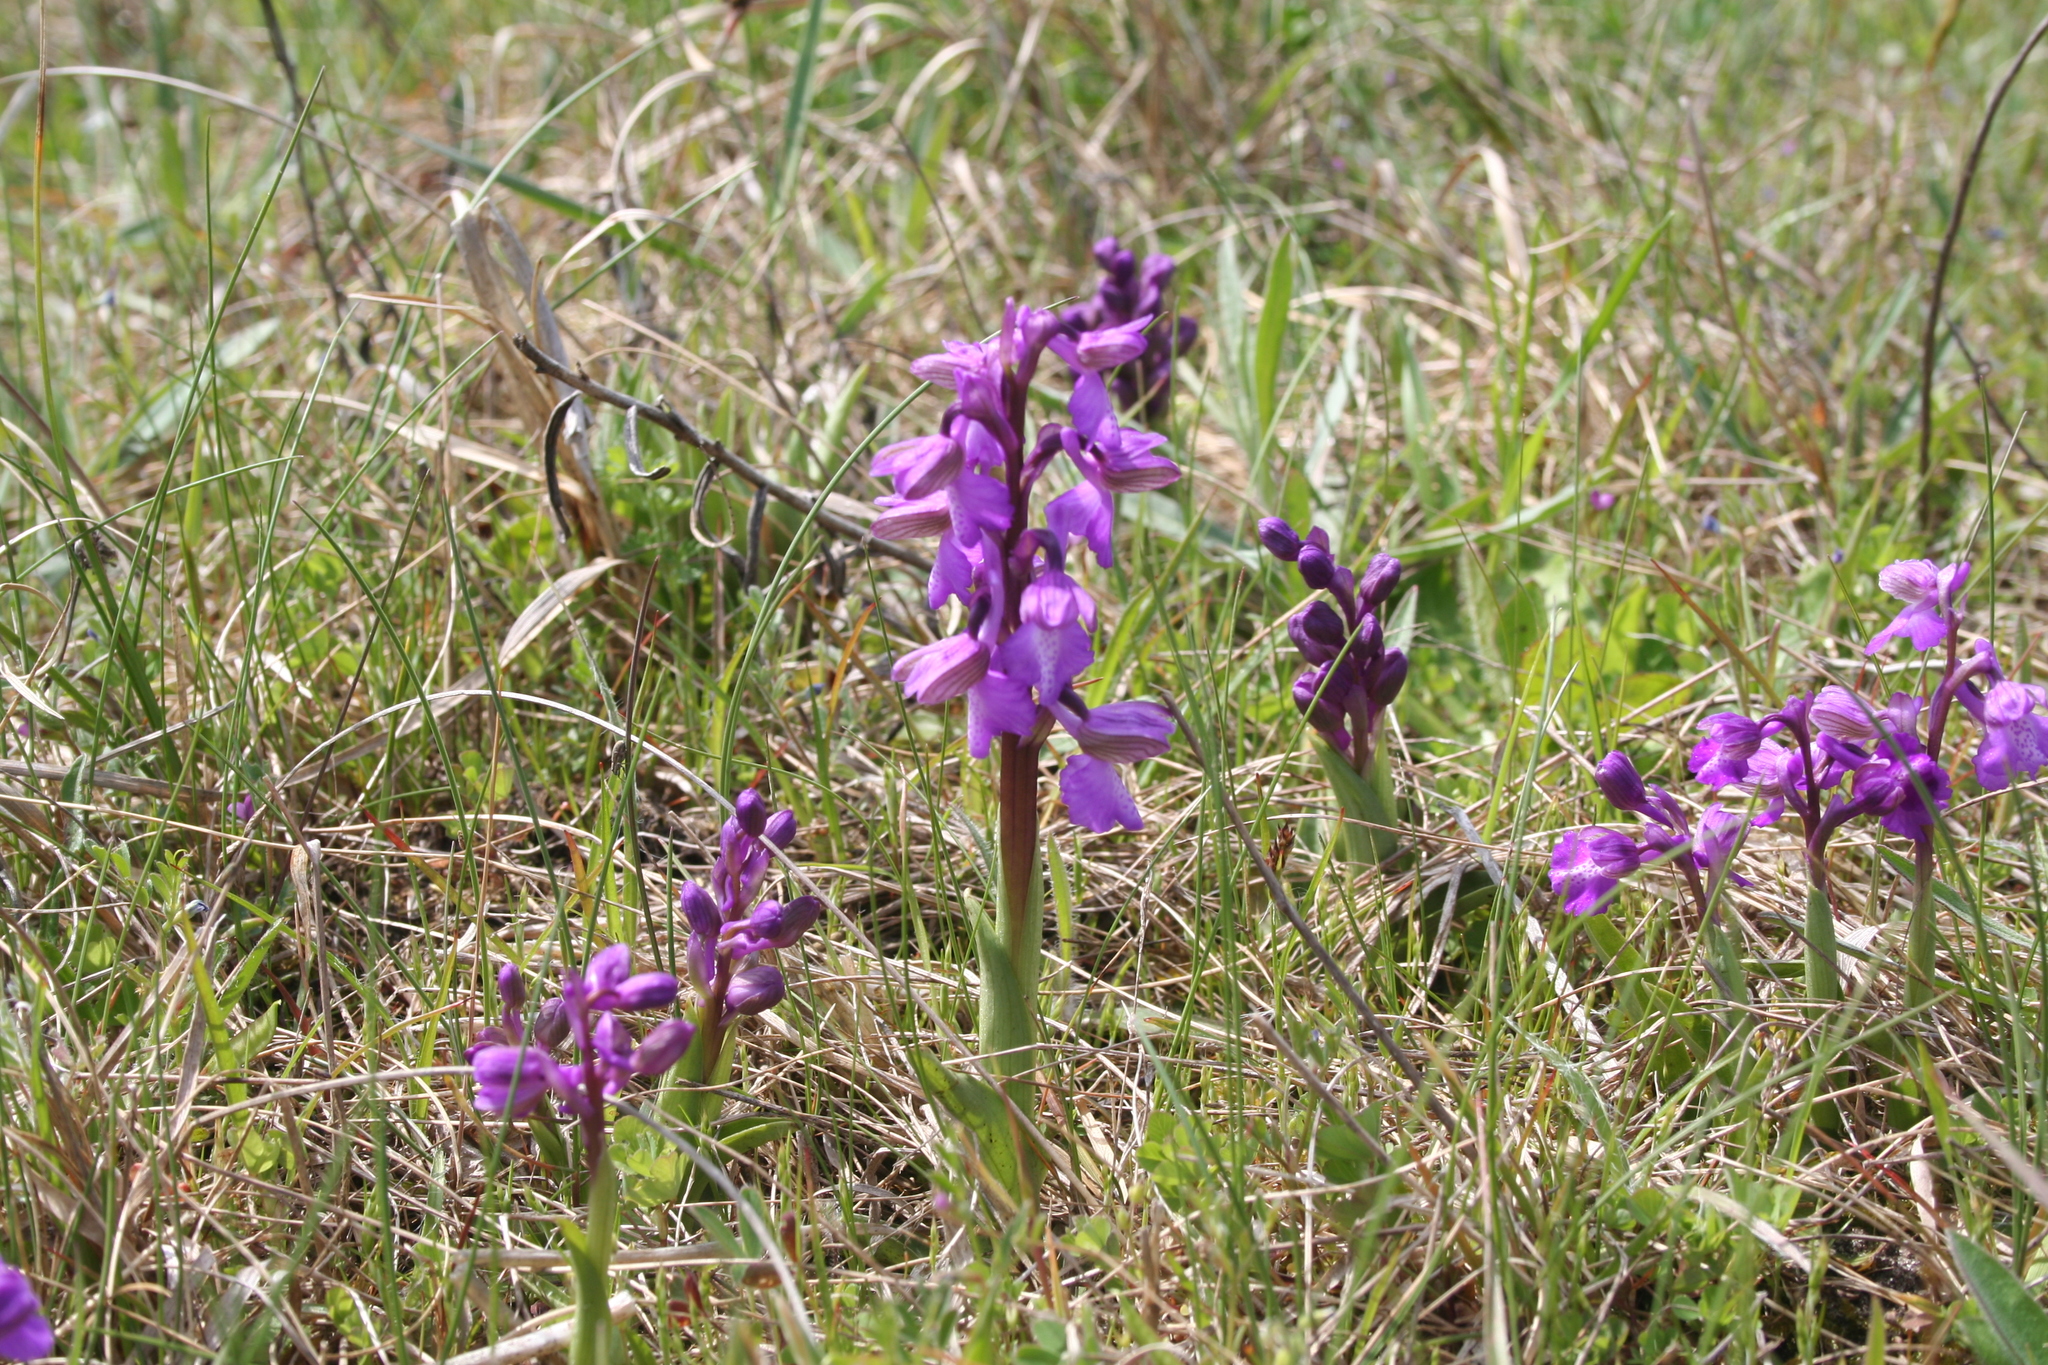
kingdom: Plantae
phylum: Tracheophyta
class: Liliopsida
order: Asparagales
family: Orchidaceae
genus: Anacamptis
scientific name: Anacamptis morio
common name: Green-winged orchid
